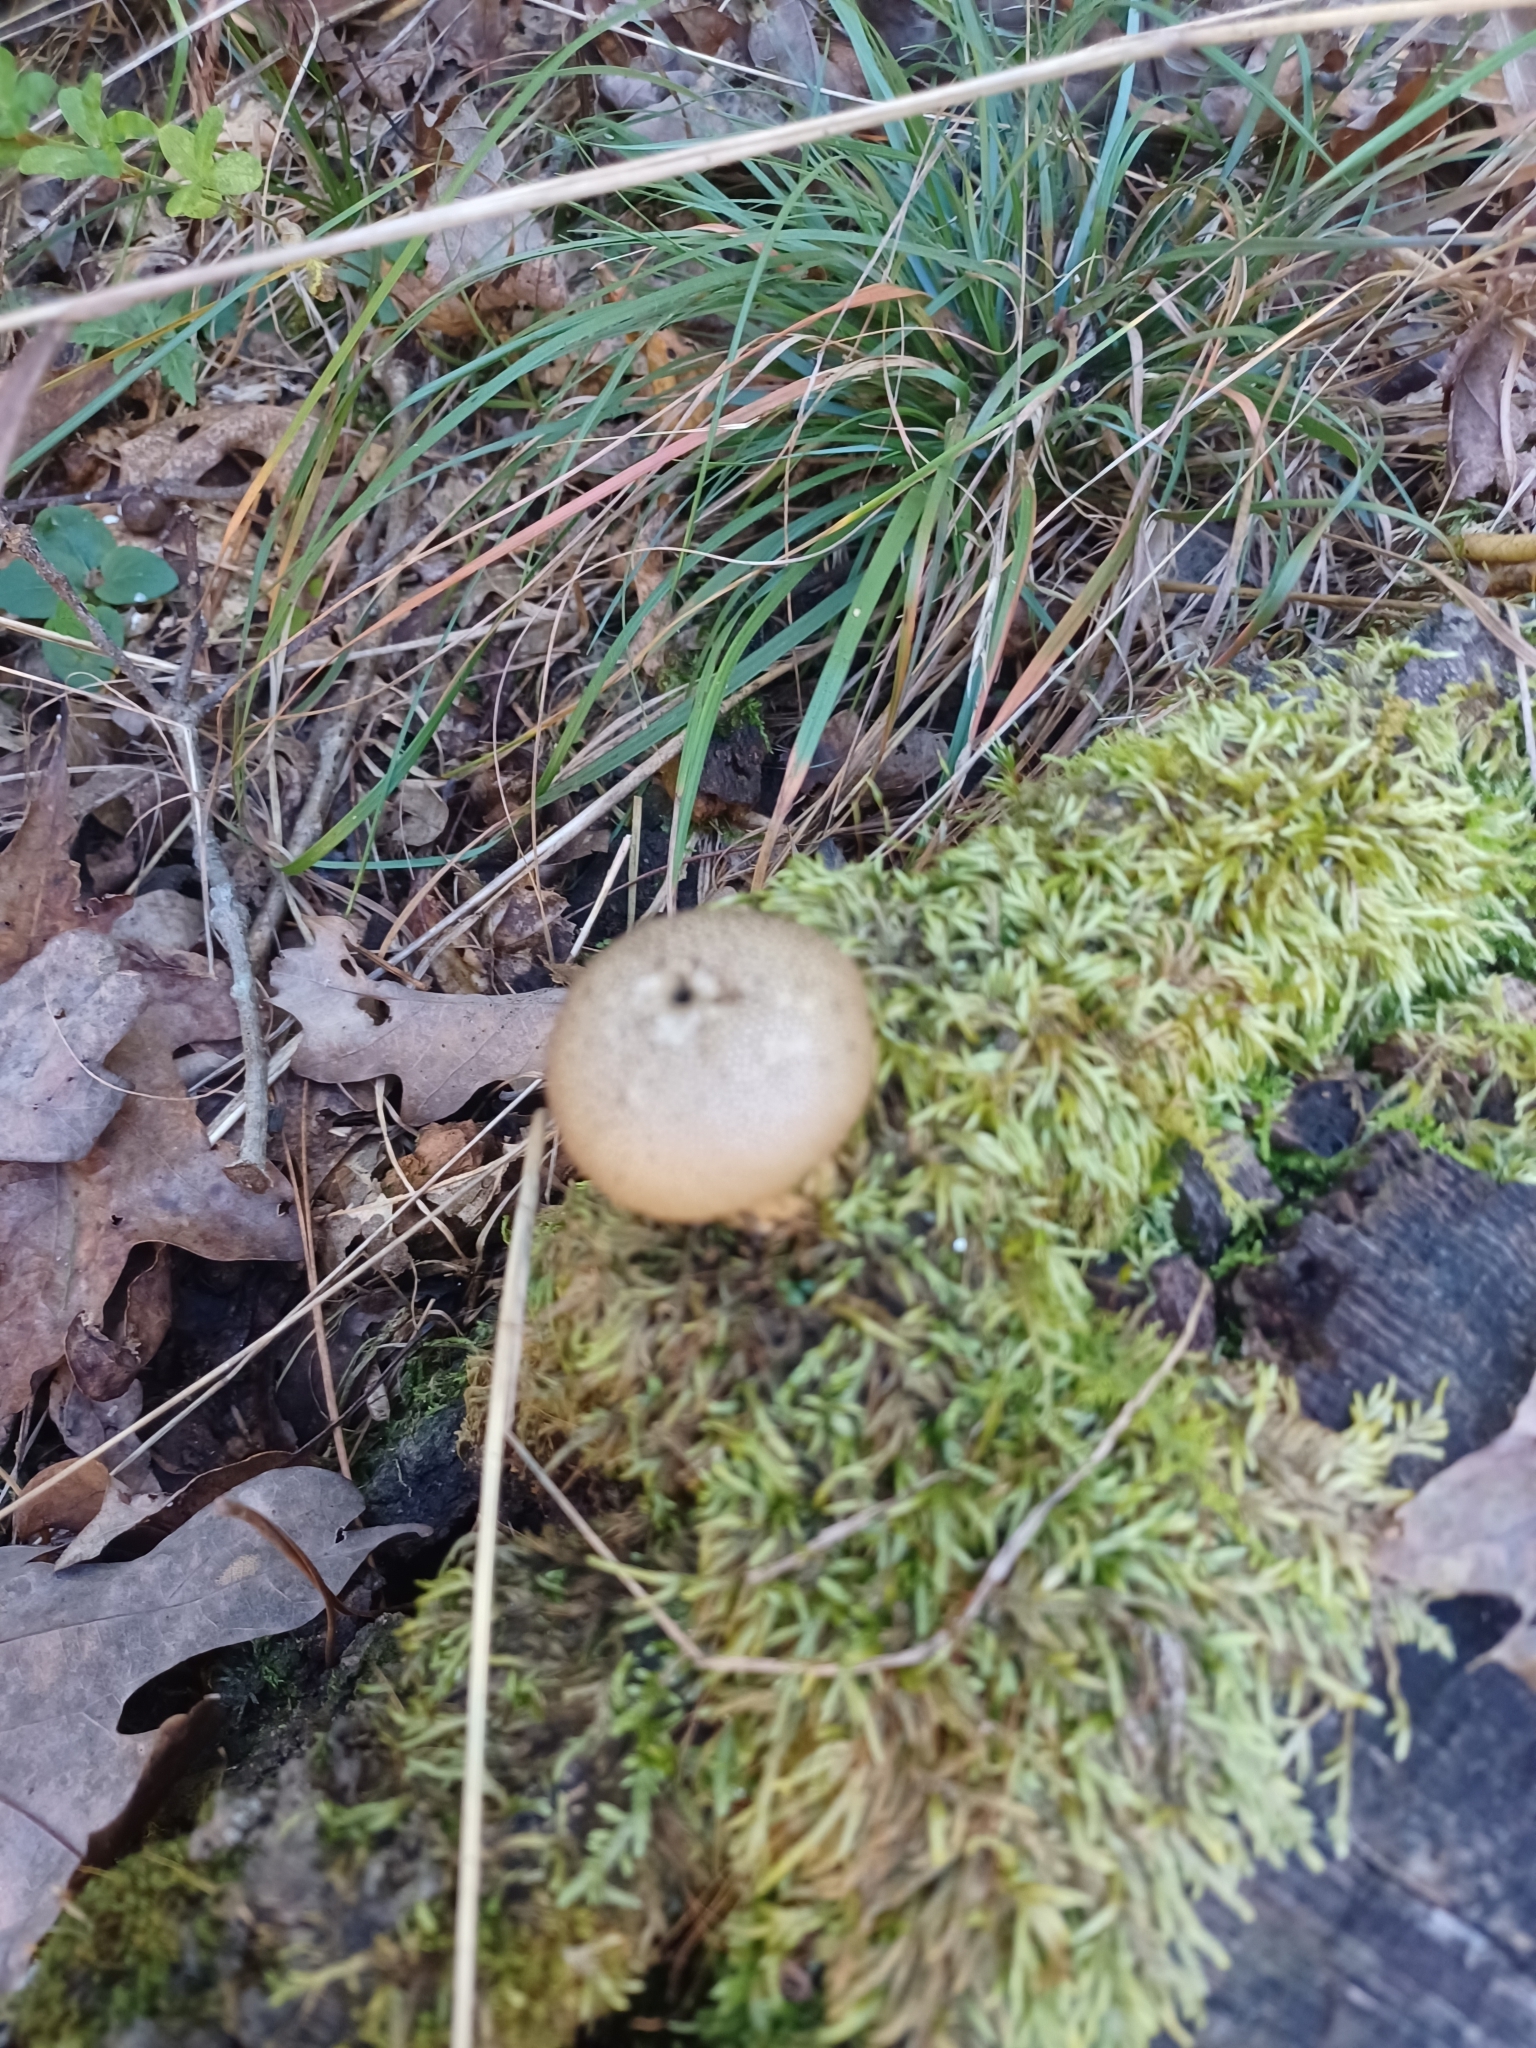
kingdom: Fungi
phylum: Basidiomycota
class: Agaricomycetes
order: Agaricales
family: Lycoperdaceae
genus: Apioperdon
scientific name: Apioperdon pyriforme
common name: Pear-shaped puffball
